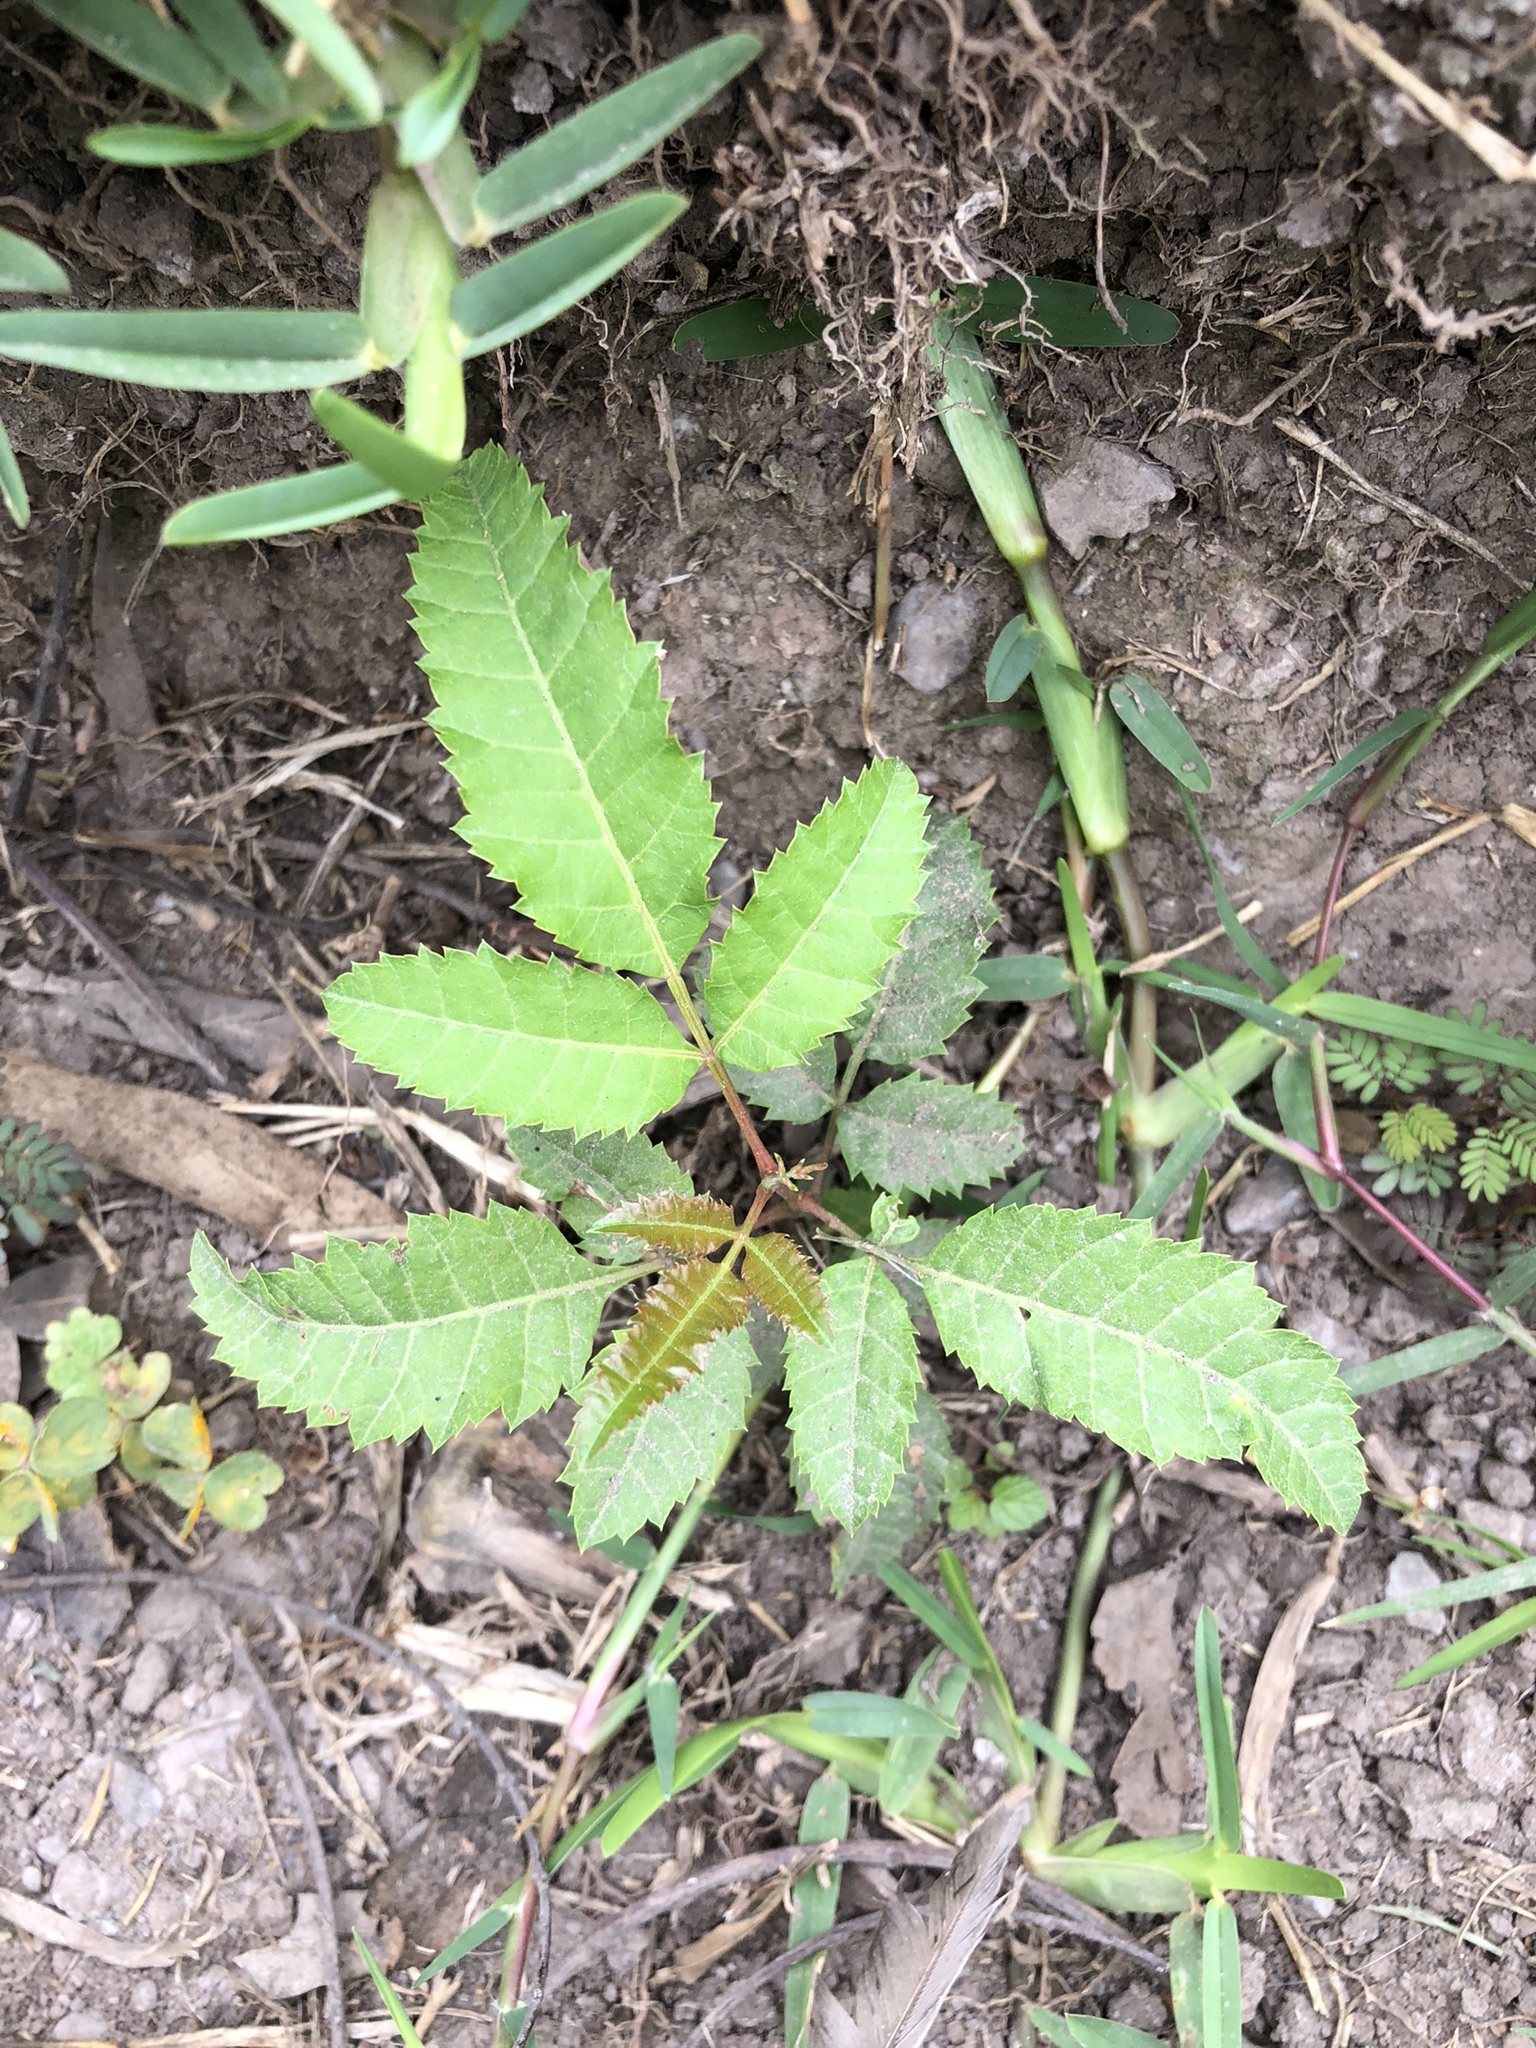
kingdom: Plantae
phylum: Tracheophyta
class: Magnoliopsida
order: Sapindales
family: Anacardiaceae
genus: Schinus
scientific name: Schinus terebinthifolia
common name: Brazilian peppertree
